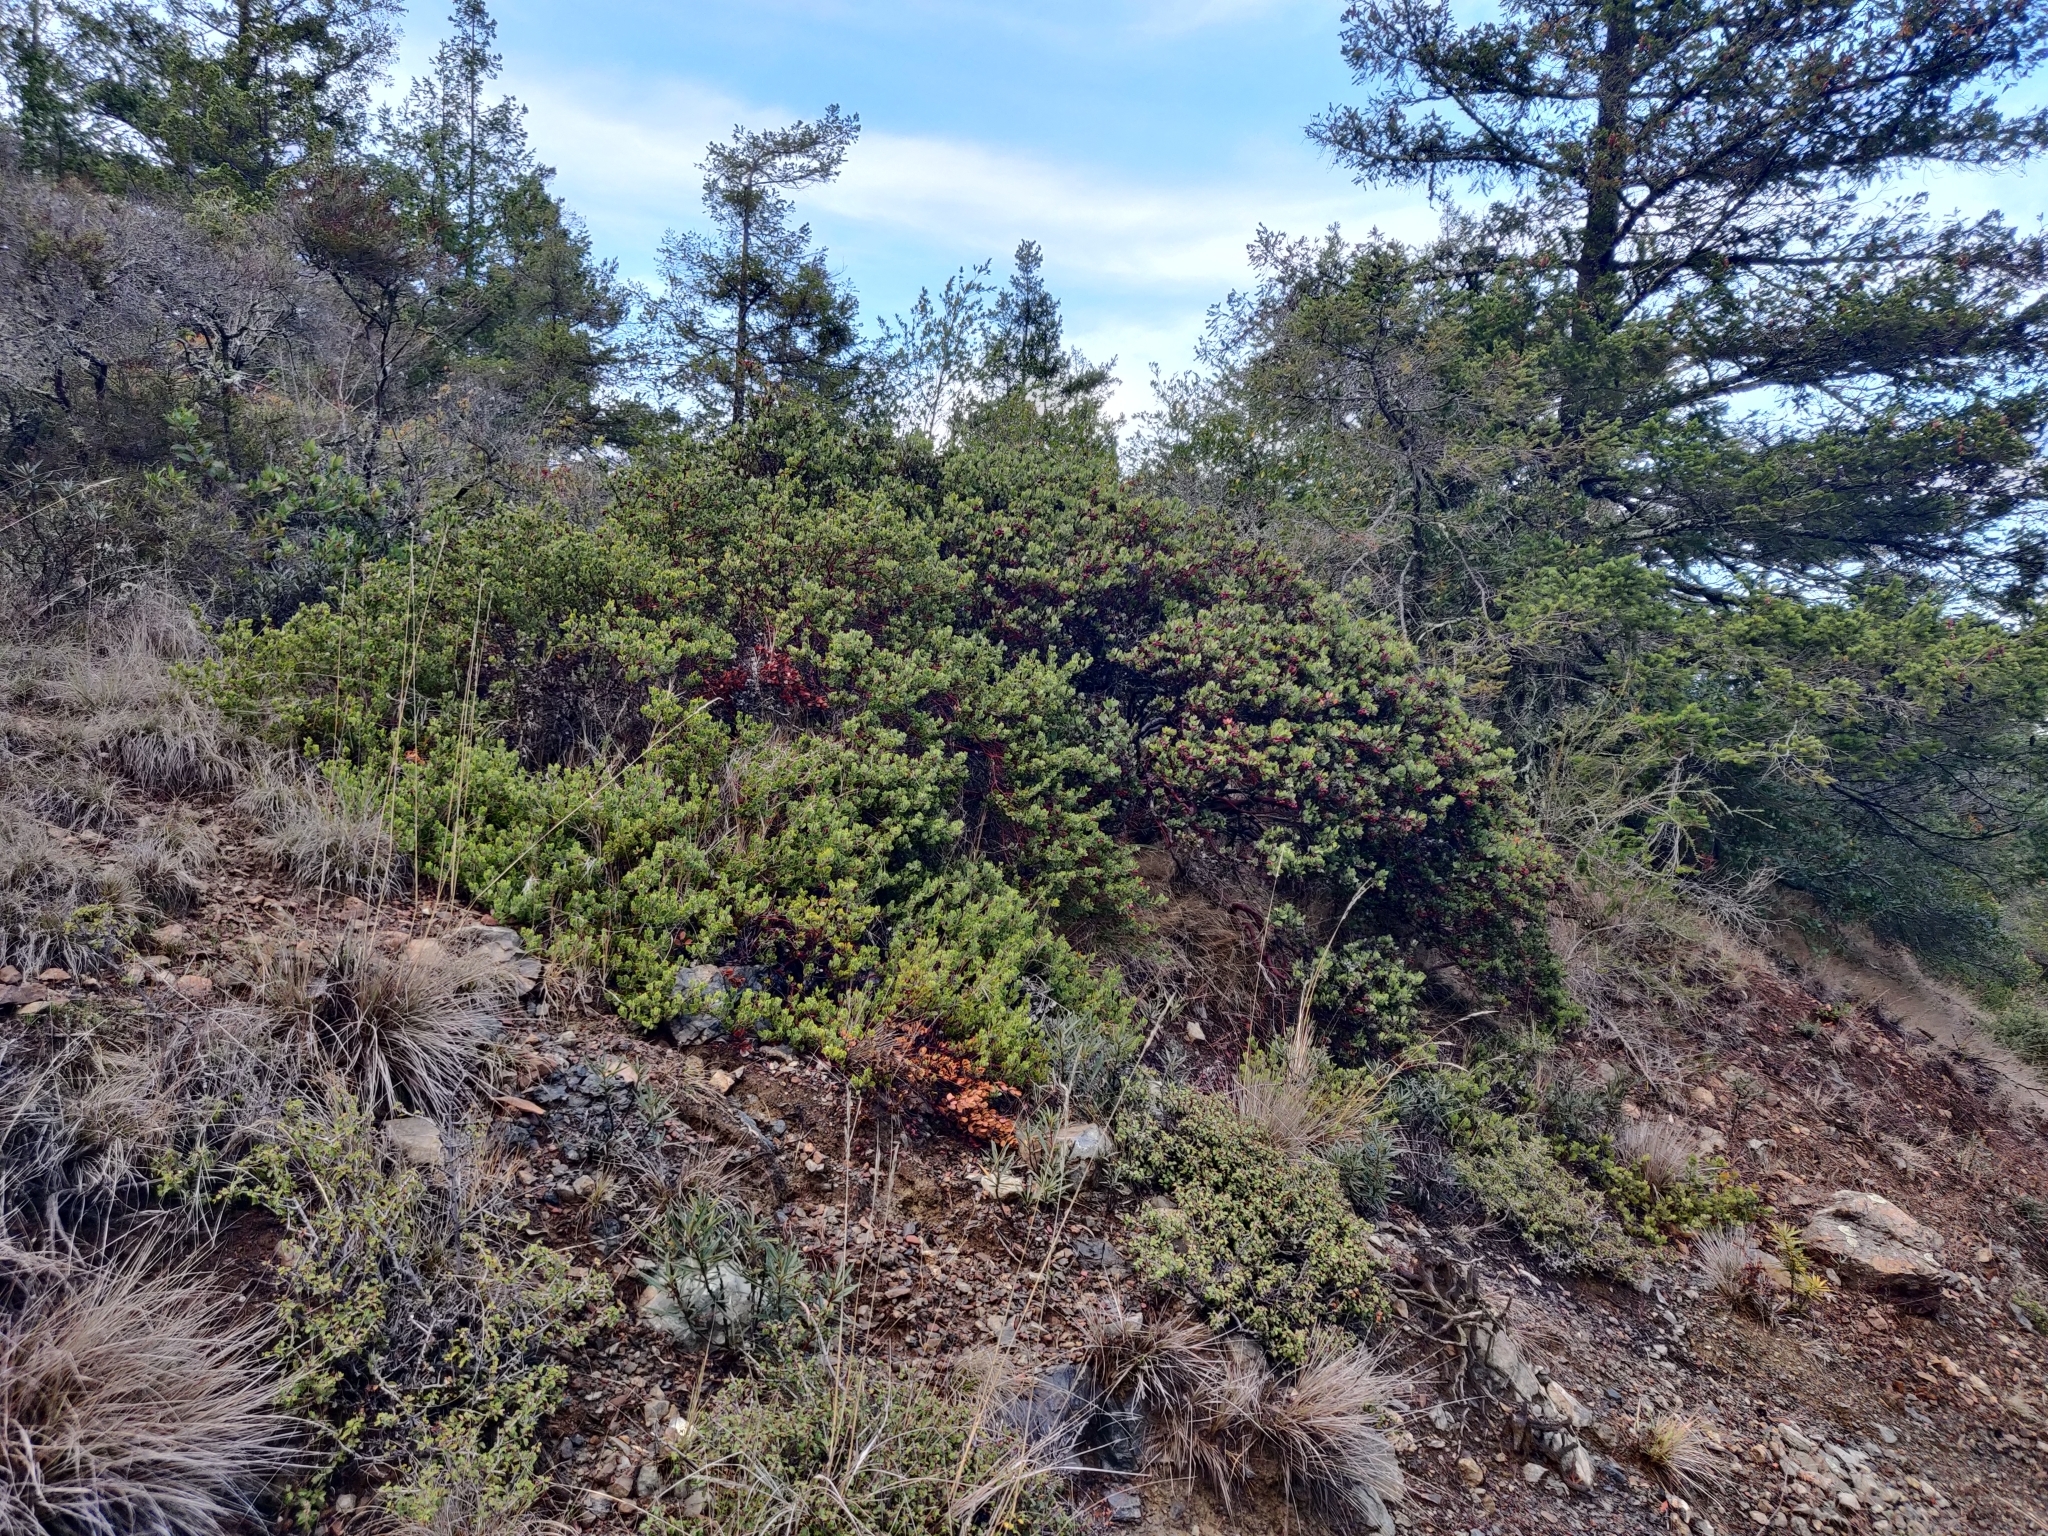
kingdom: Plantae
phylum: Tracheophyta
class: Magnoliopsida
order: Ericales
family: Ericaceae
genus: Arctostaphylos
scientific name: Arctostaphylos montana
